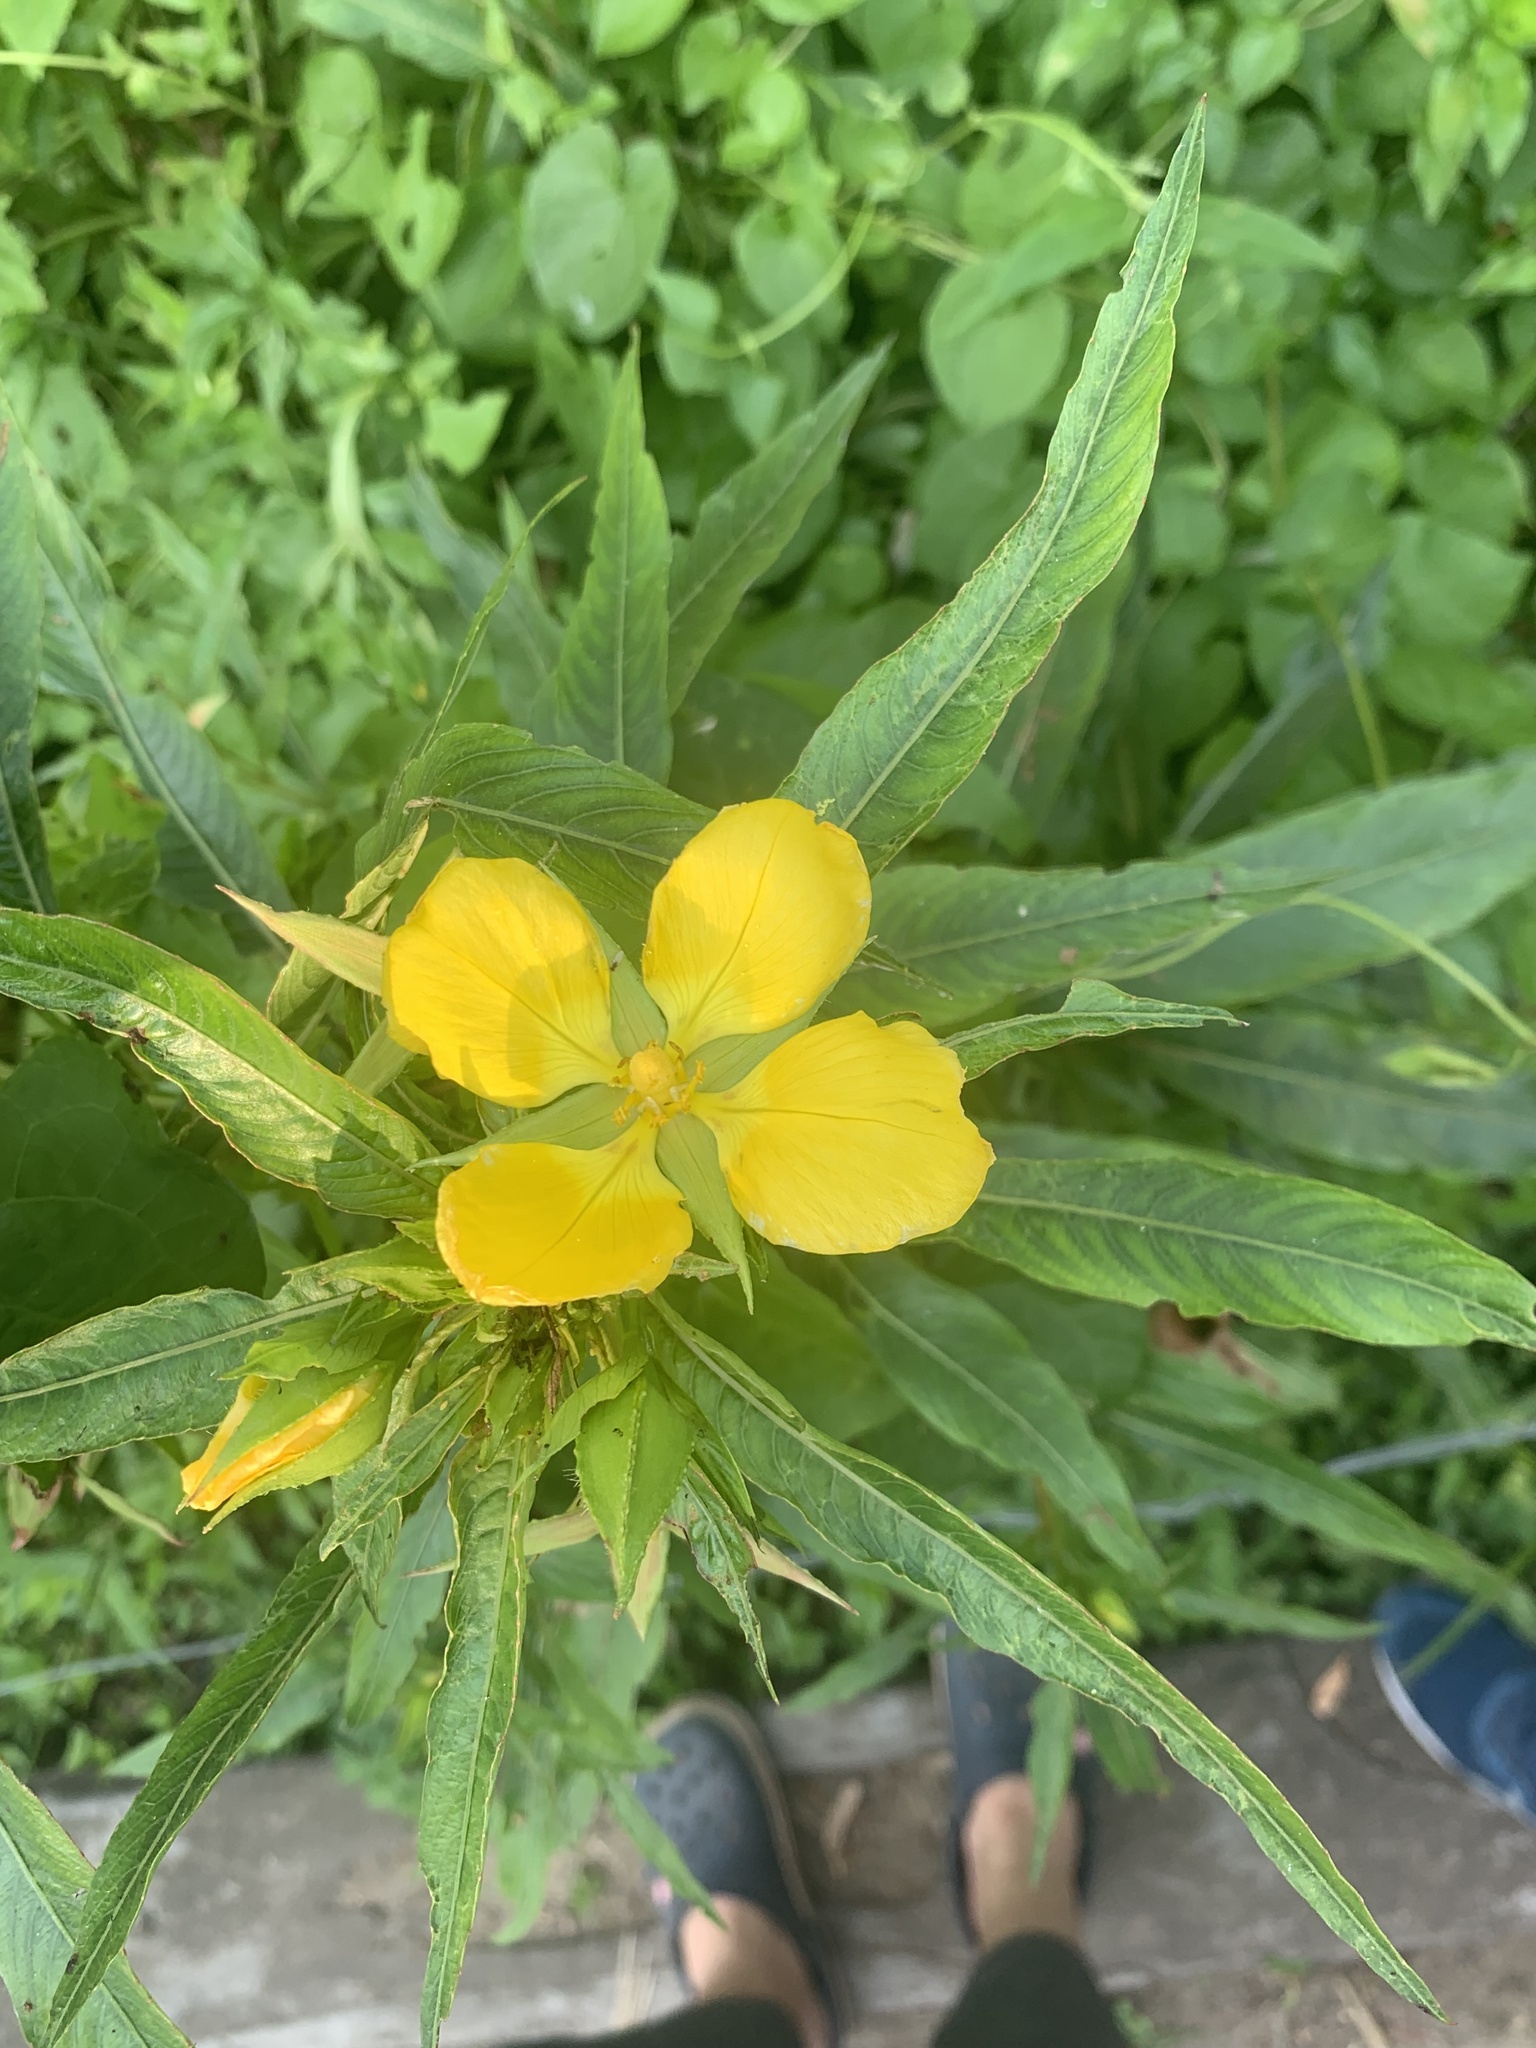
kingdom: Plantae
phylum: Tracheophyta
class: Magnoliopsida
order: Myrtales
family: Onagraceae
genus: Ludwigia
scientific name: Ludwigia elegans
